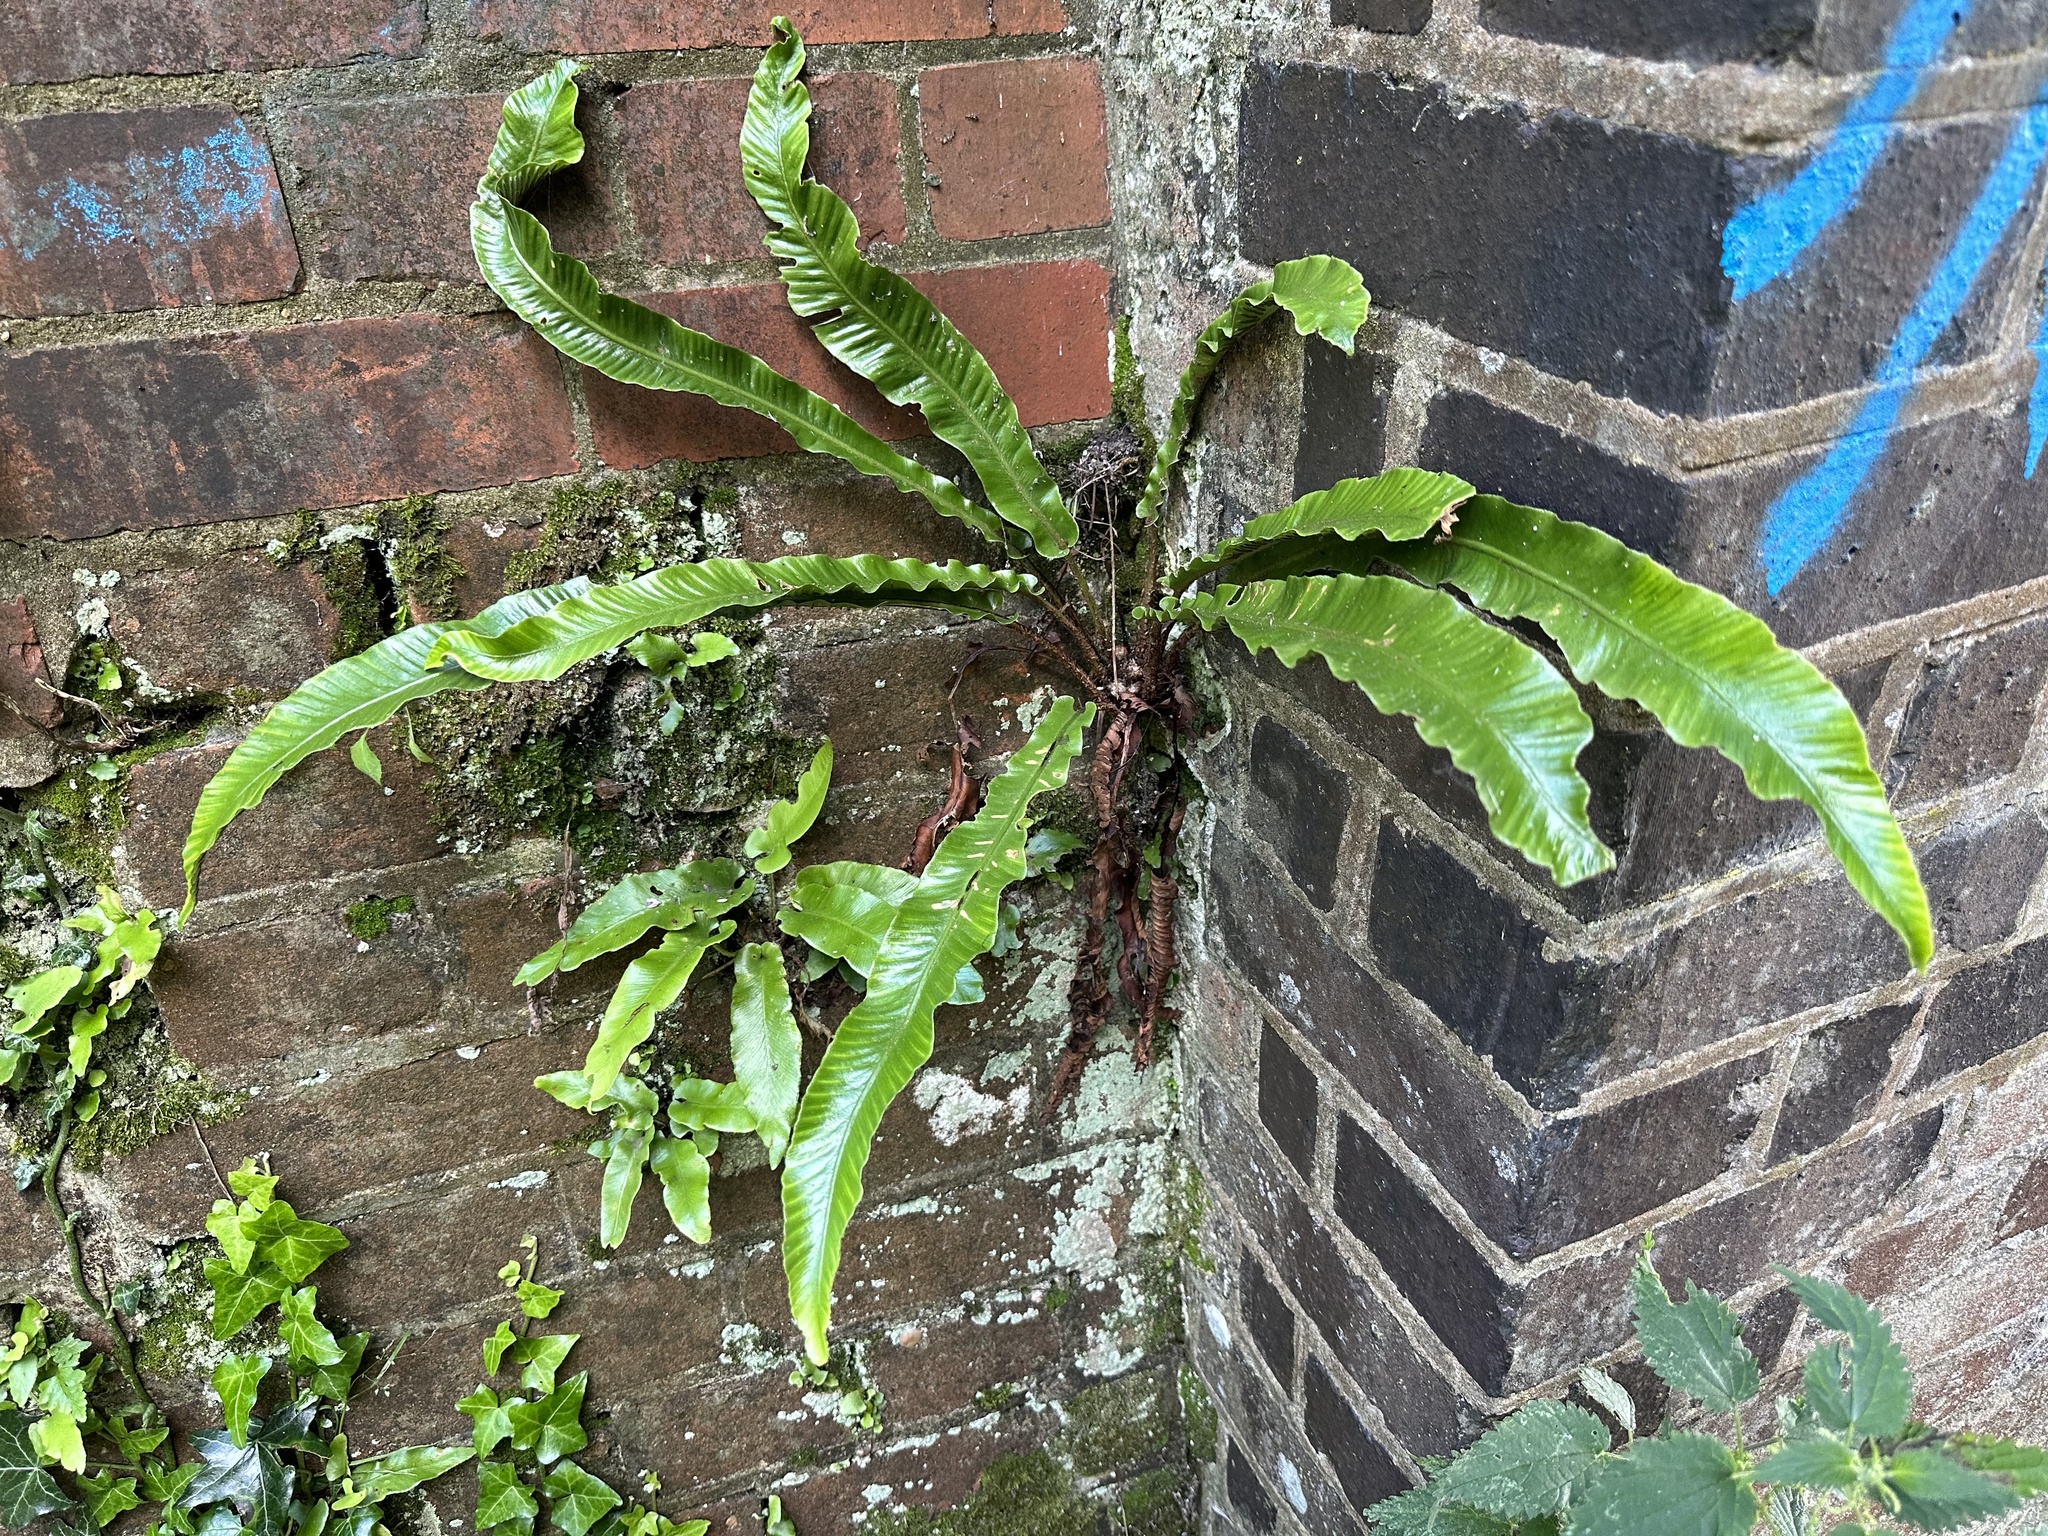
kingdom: Plantae
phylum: Tracheophyta
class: Polypodiopsida
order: Polypodiales
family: Aspleniaceae
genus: Asplenium
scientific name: Asplenium scolopendrium
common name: Hart's-tongue fern
